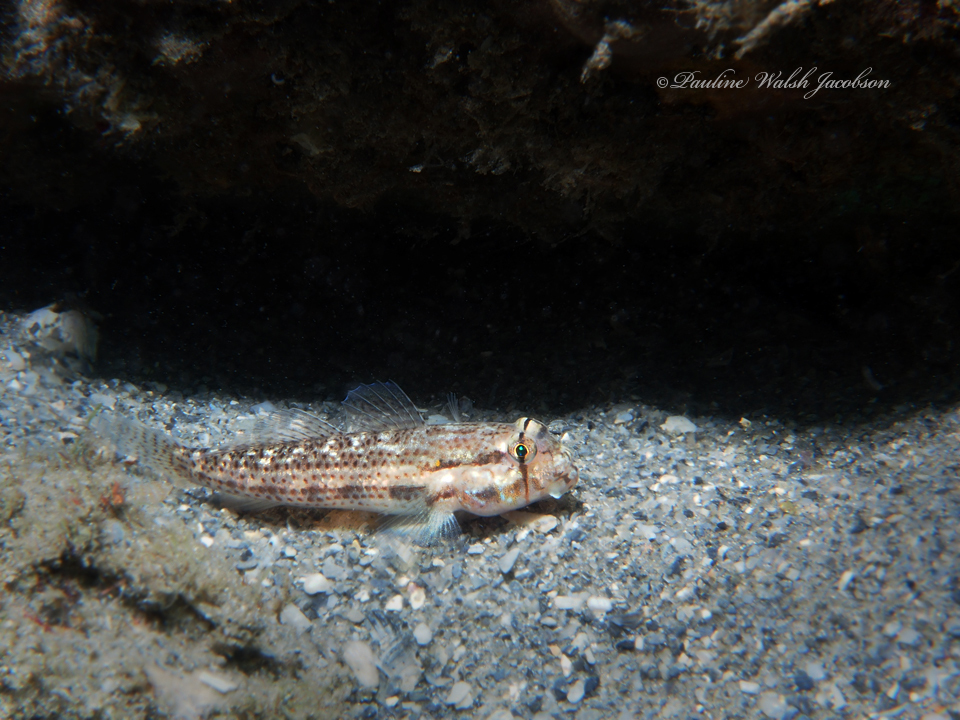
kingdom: Animalia
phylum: Chordata
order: Perciformes
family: Gobiidae
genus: Gnatholepis
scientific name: Gnatholepis thompsoni
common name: Goldspot goby
